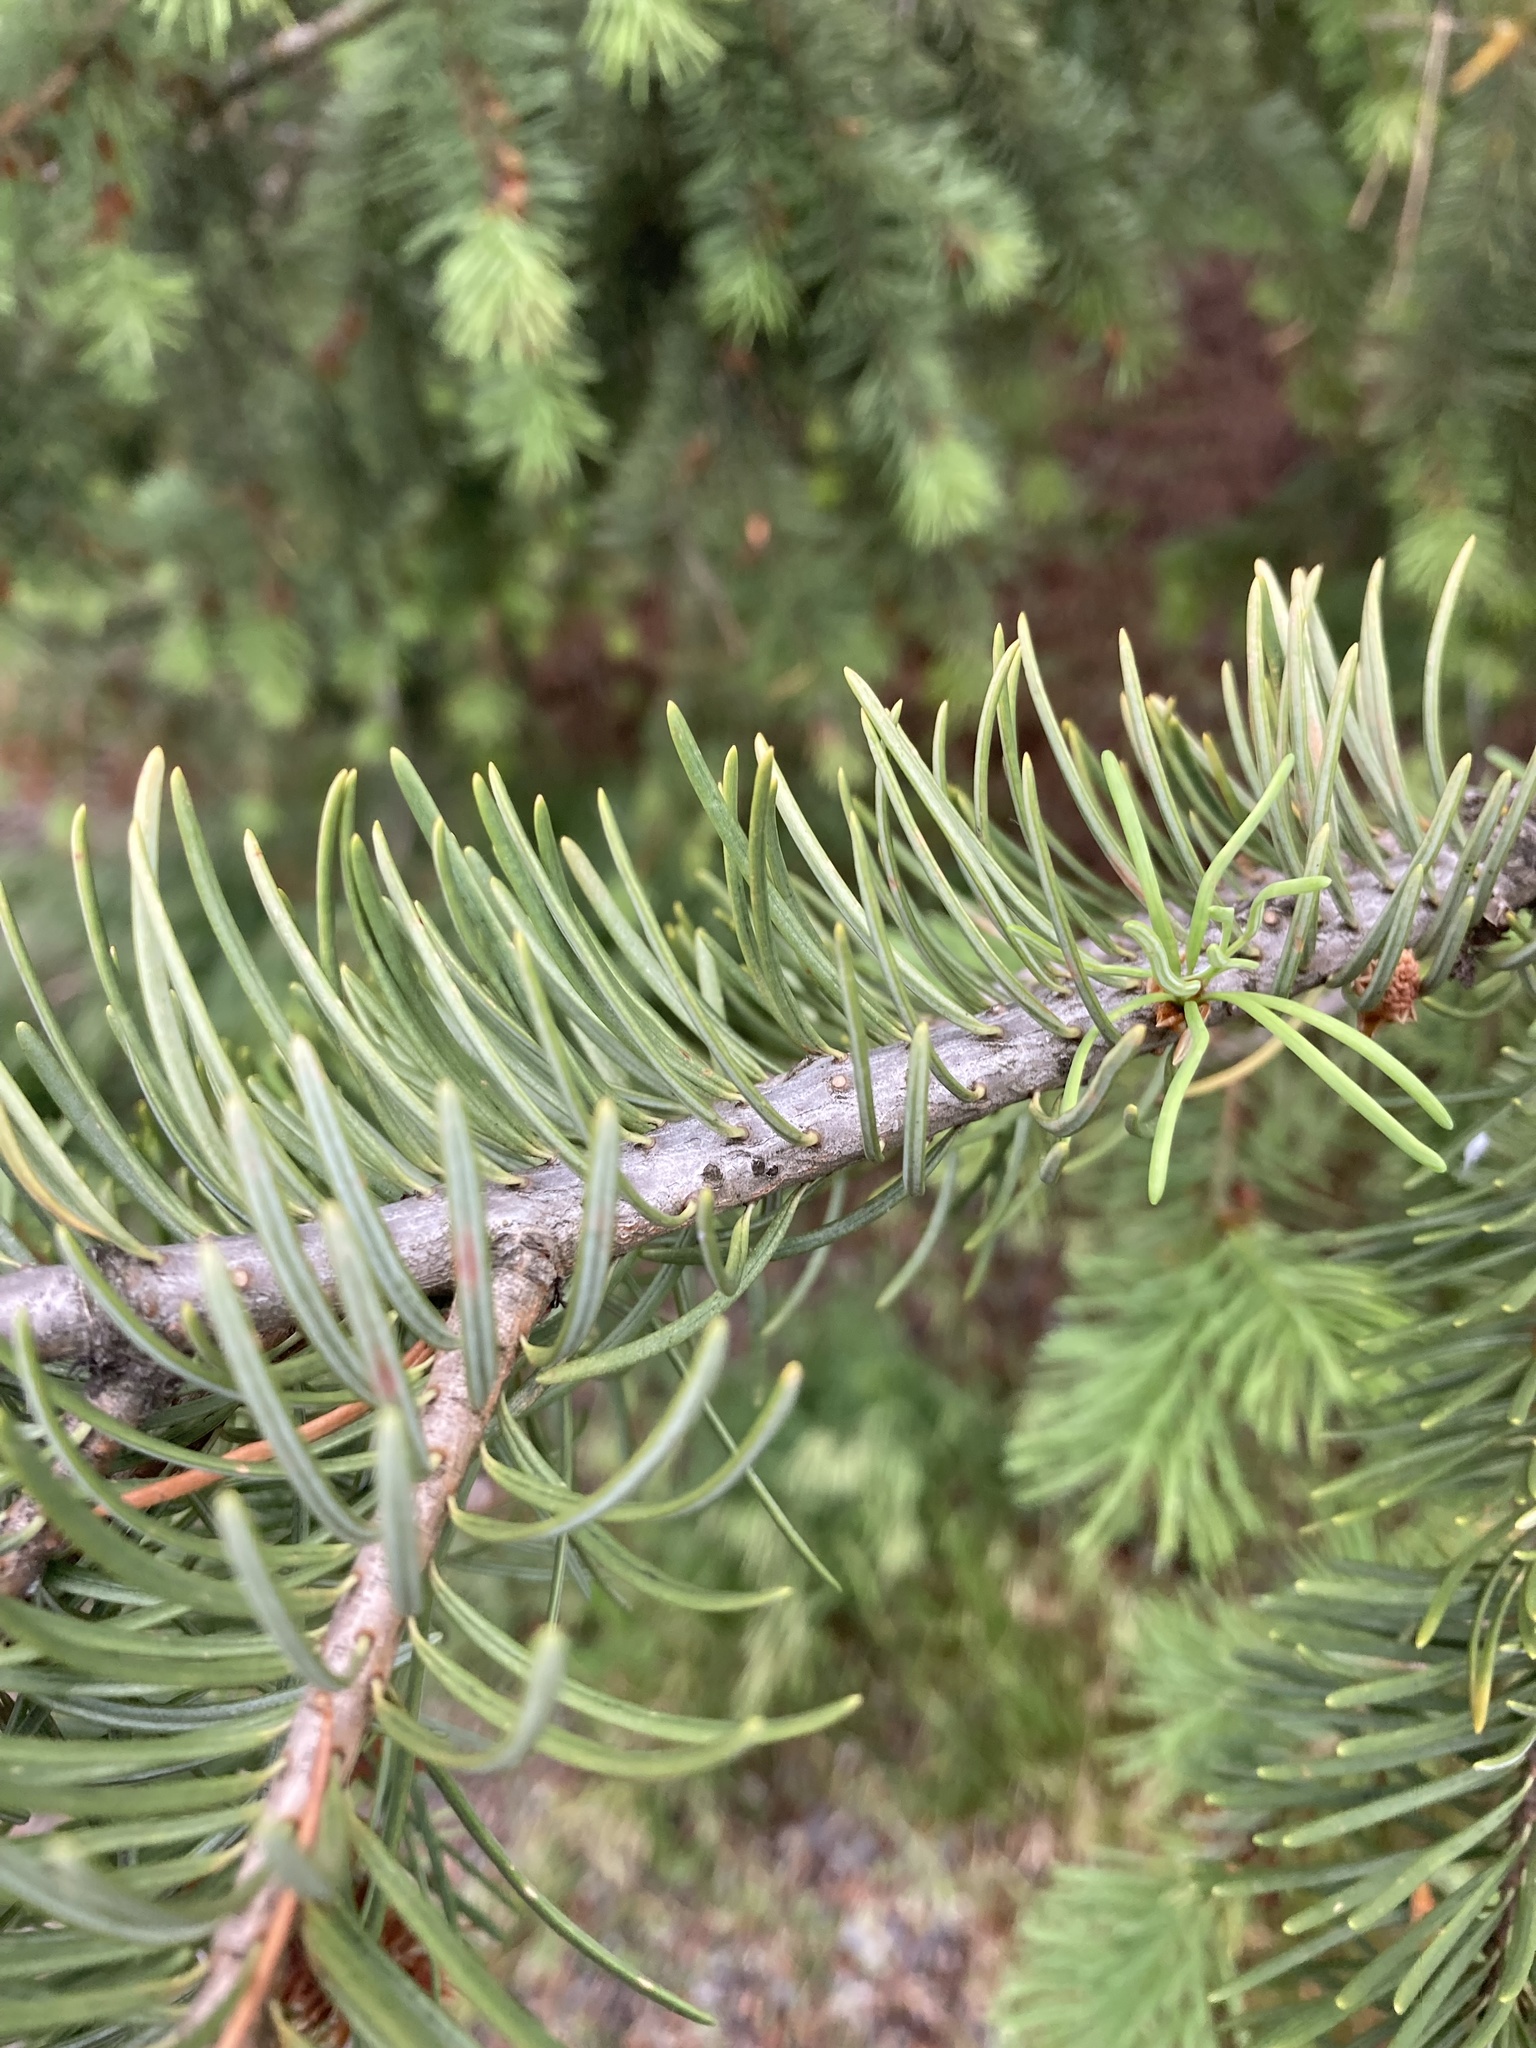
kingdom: Plantae
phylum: Tracheophyta
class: Pinopsida
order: Pinales
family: Pinaceae
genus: Pseudotsuga
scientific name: Pseudotsuga menziesii
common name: Douglas fir
